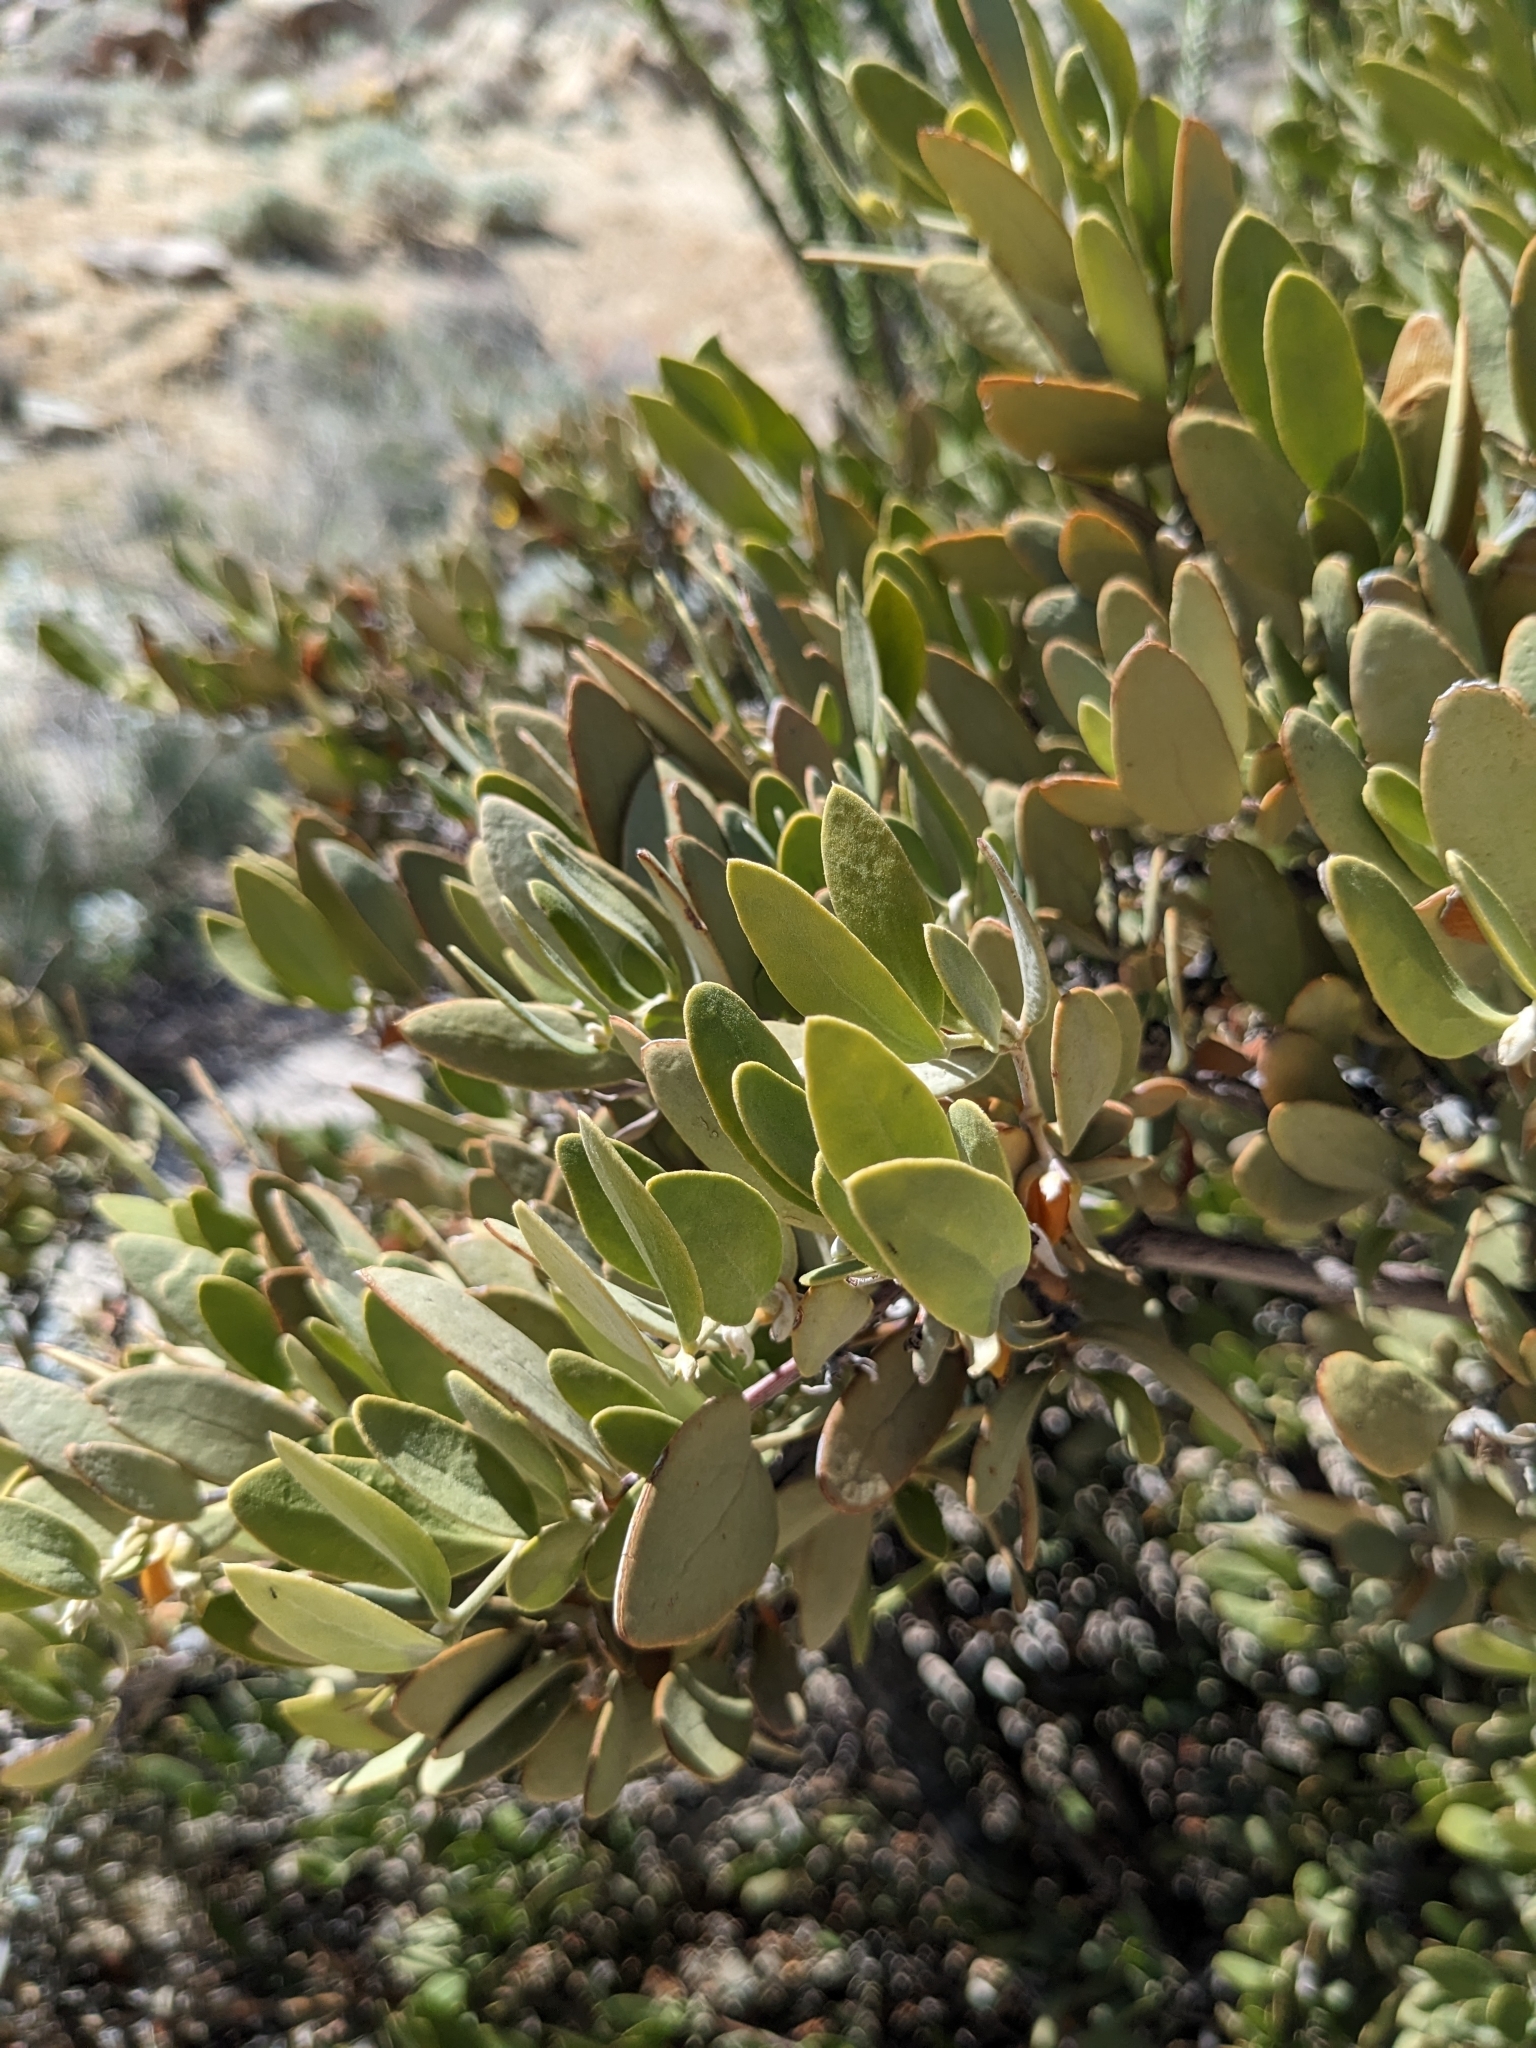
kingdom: Plantae
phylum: Tracheophyta
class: Magnoliopsida
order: Caryophyllales
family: Simmondsiaceae
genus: Simmondsia
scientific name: Simmondsia chinensis
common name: Jojoba
